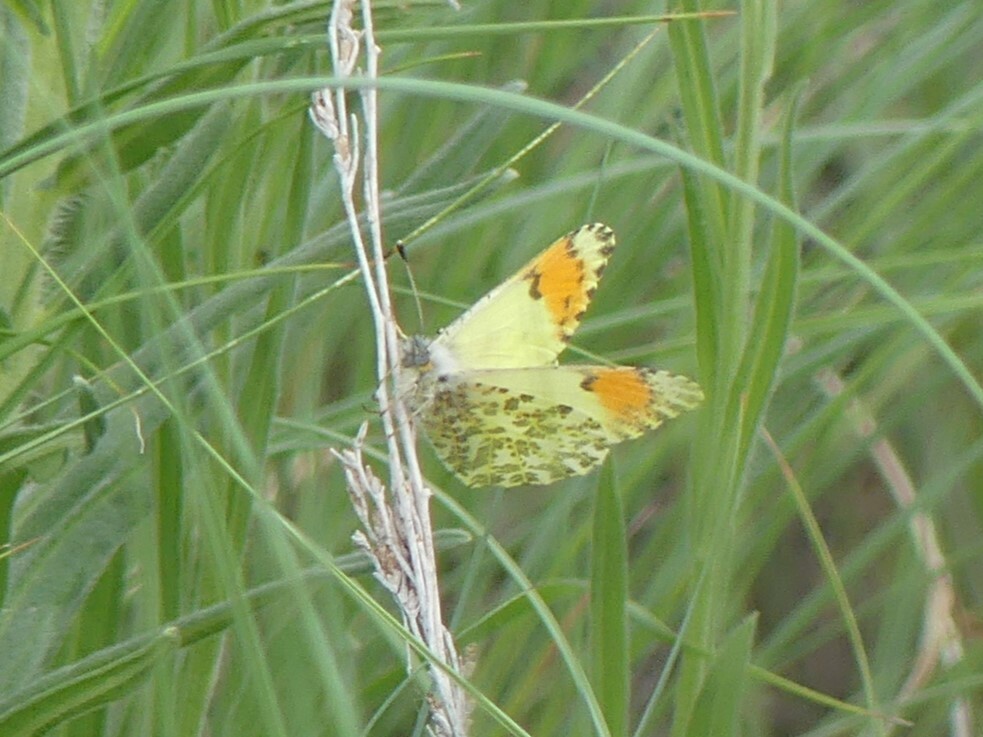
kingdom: Animalia
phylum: Arthropoda
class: Insecta
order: Lepidoptera
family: Pieridae
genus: Anthocharis
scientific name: Anthocharis julia
